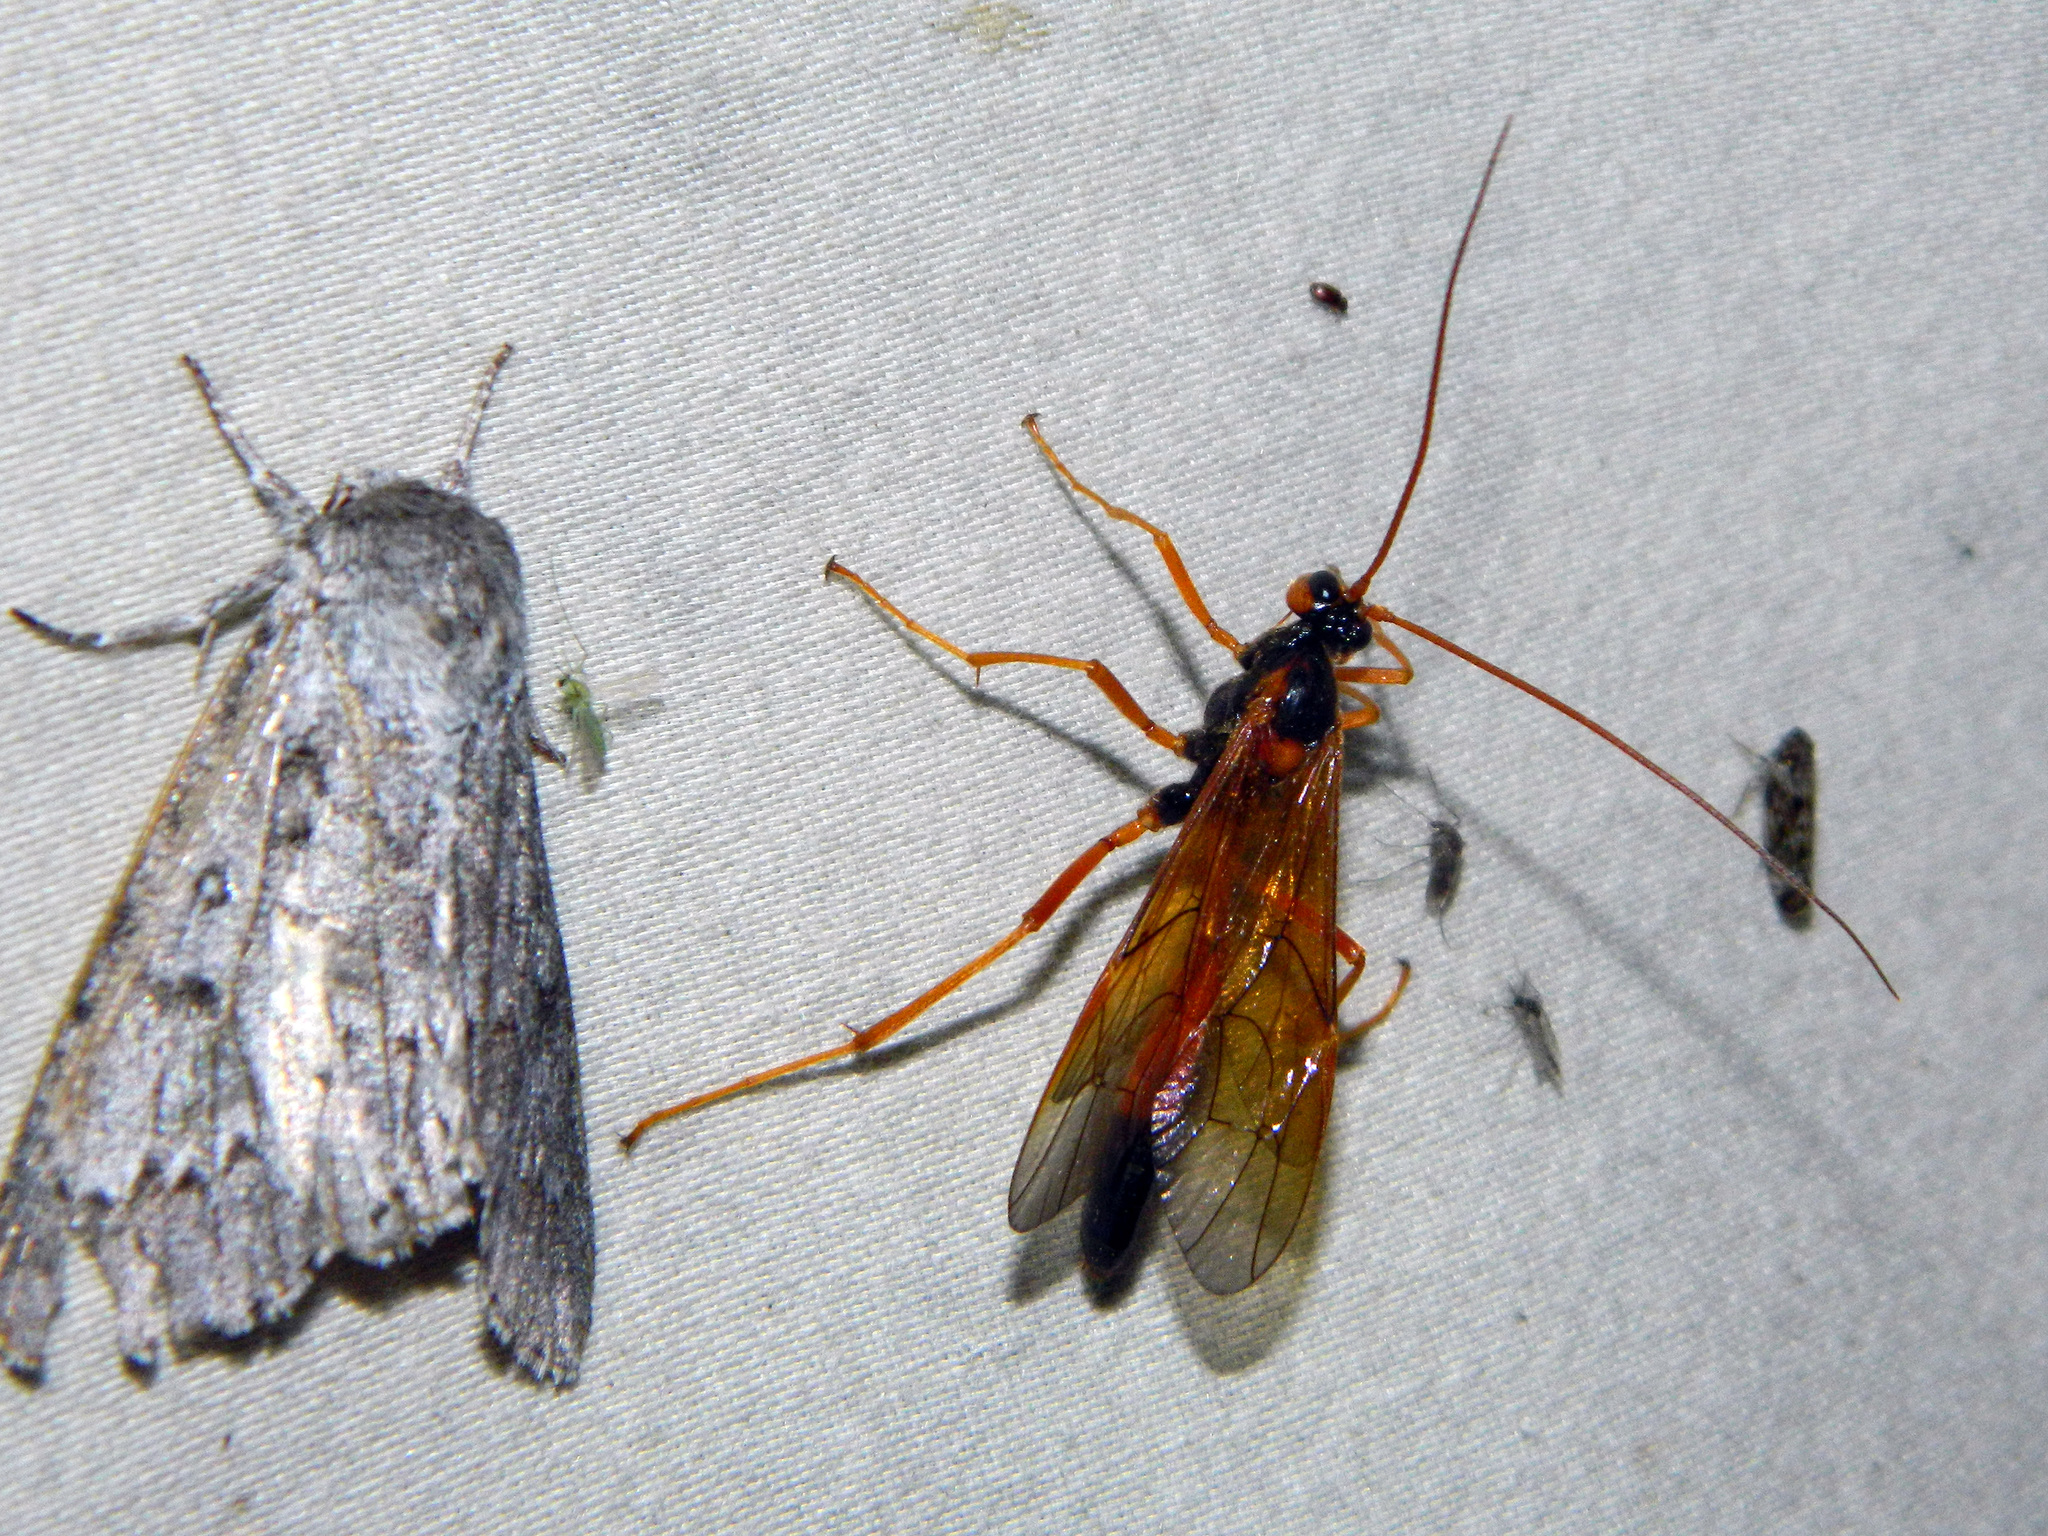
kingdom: Animalia
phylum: Arthropoda
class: Insecta
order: Hymenoptera
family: Ichneumonidae
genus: Opheltes
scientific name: Opheltes glaucopterus
